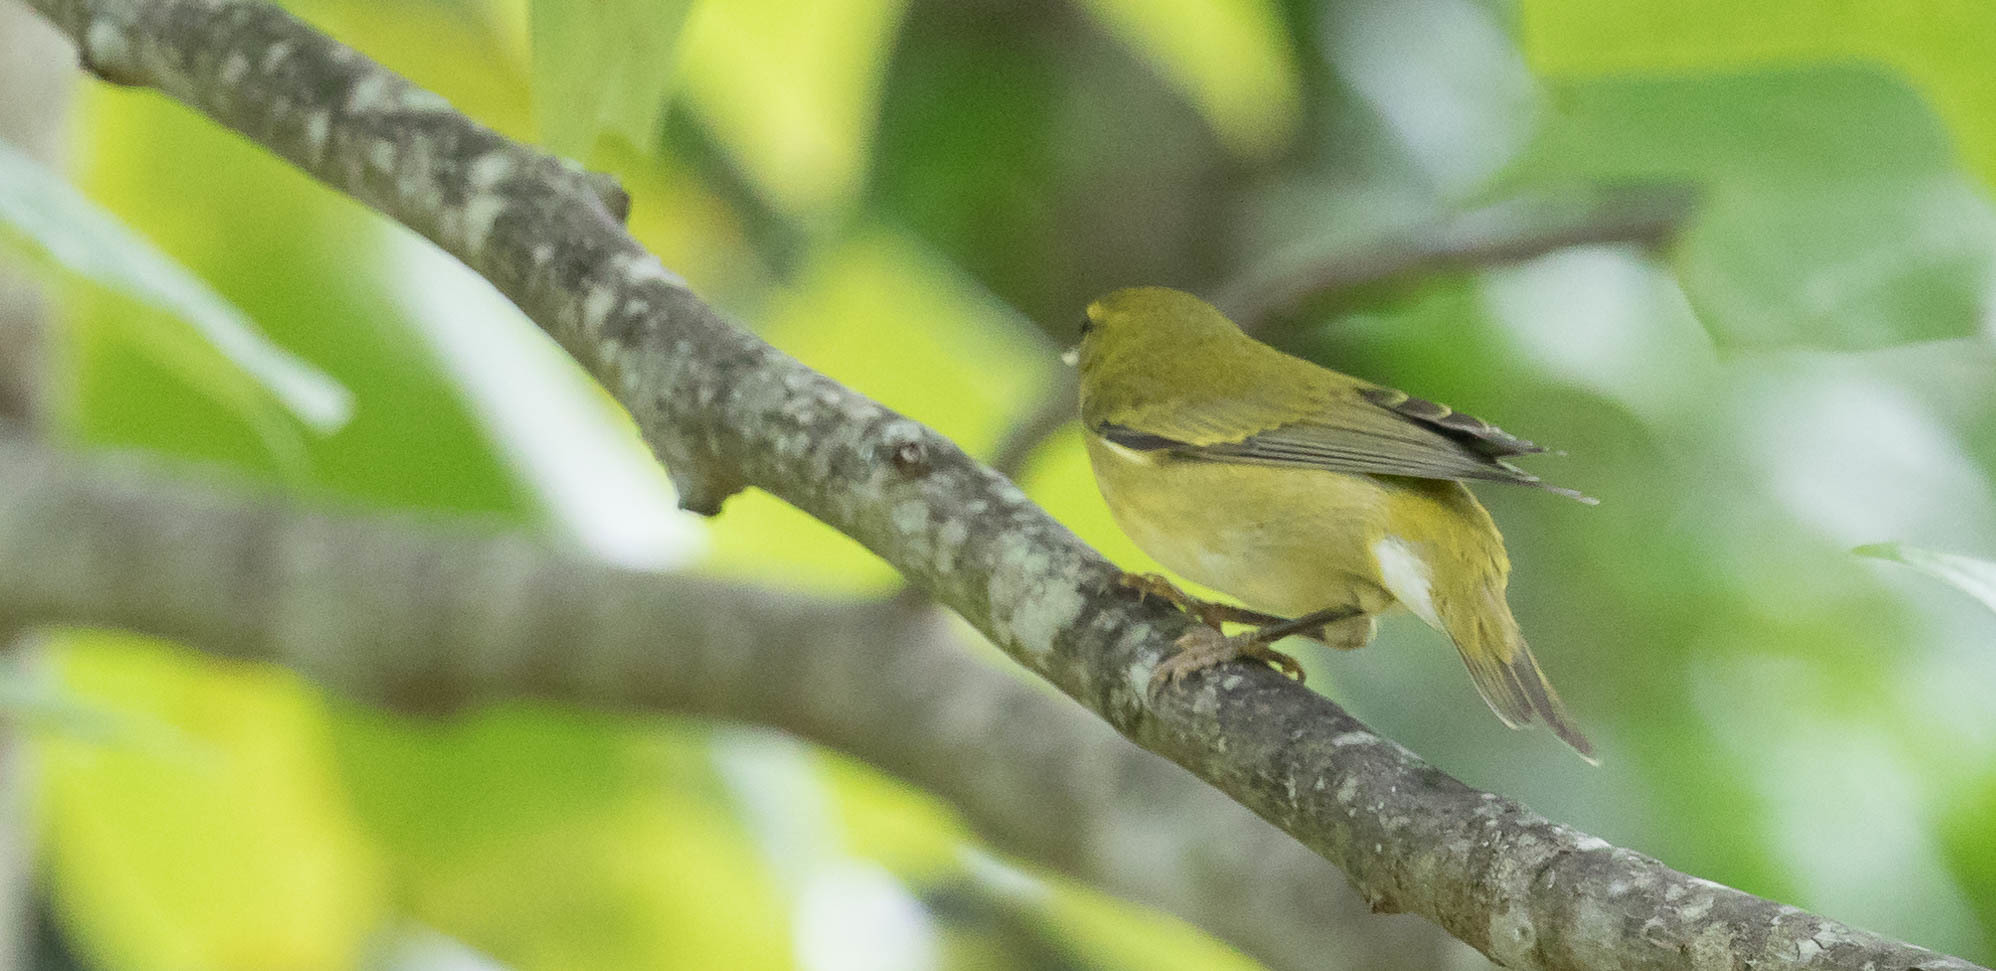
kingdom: Animalia
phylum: Chordata
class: Aves
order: Passeriformes
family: Parulidae
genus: Leiothlypis
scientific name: Leiothlypis peregrina
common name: Tennessee warbler
